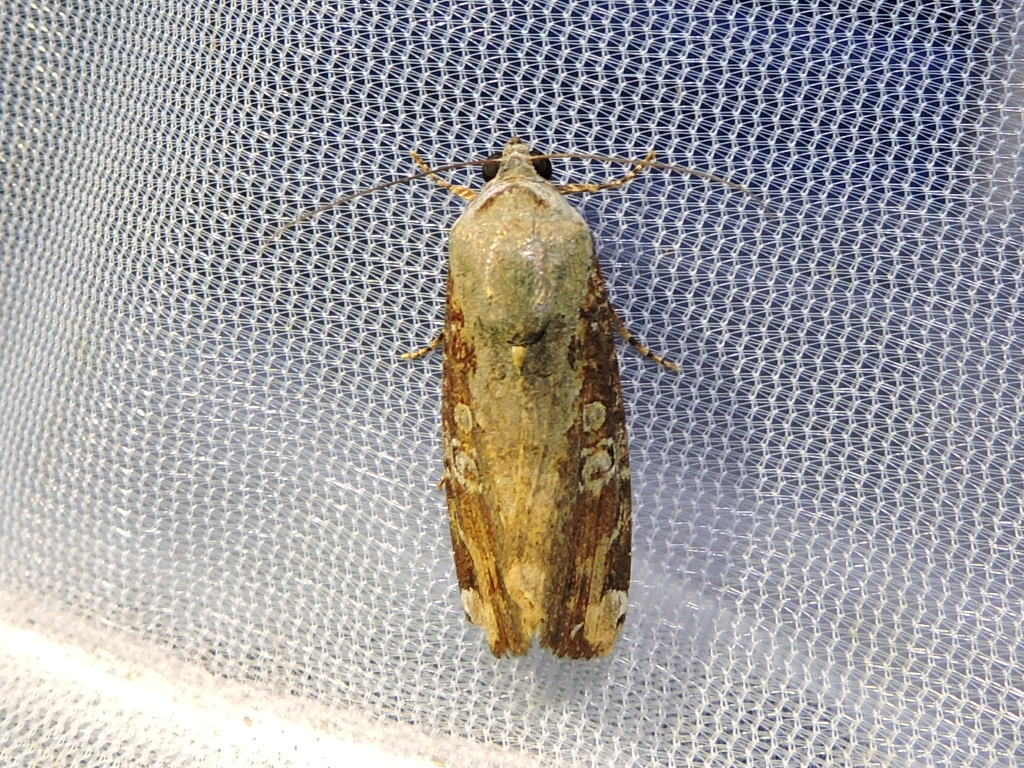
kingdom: Animalia
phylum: Arthropoda
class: Insecta
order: Lepidoptera
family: Noctuidae
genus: Magusa
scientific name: Magusa divaricata
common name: Orb narrow-winged moth
